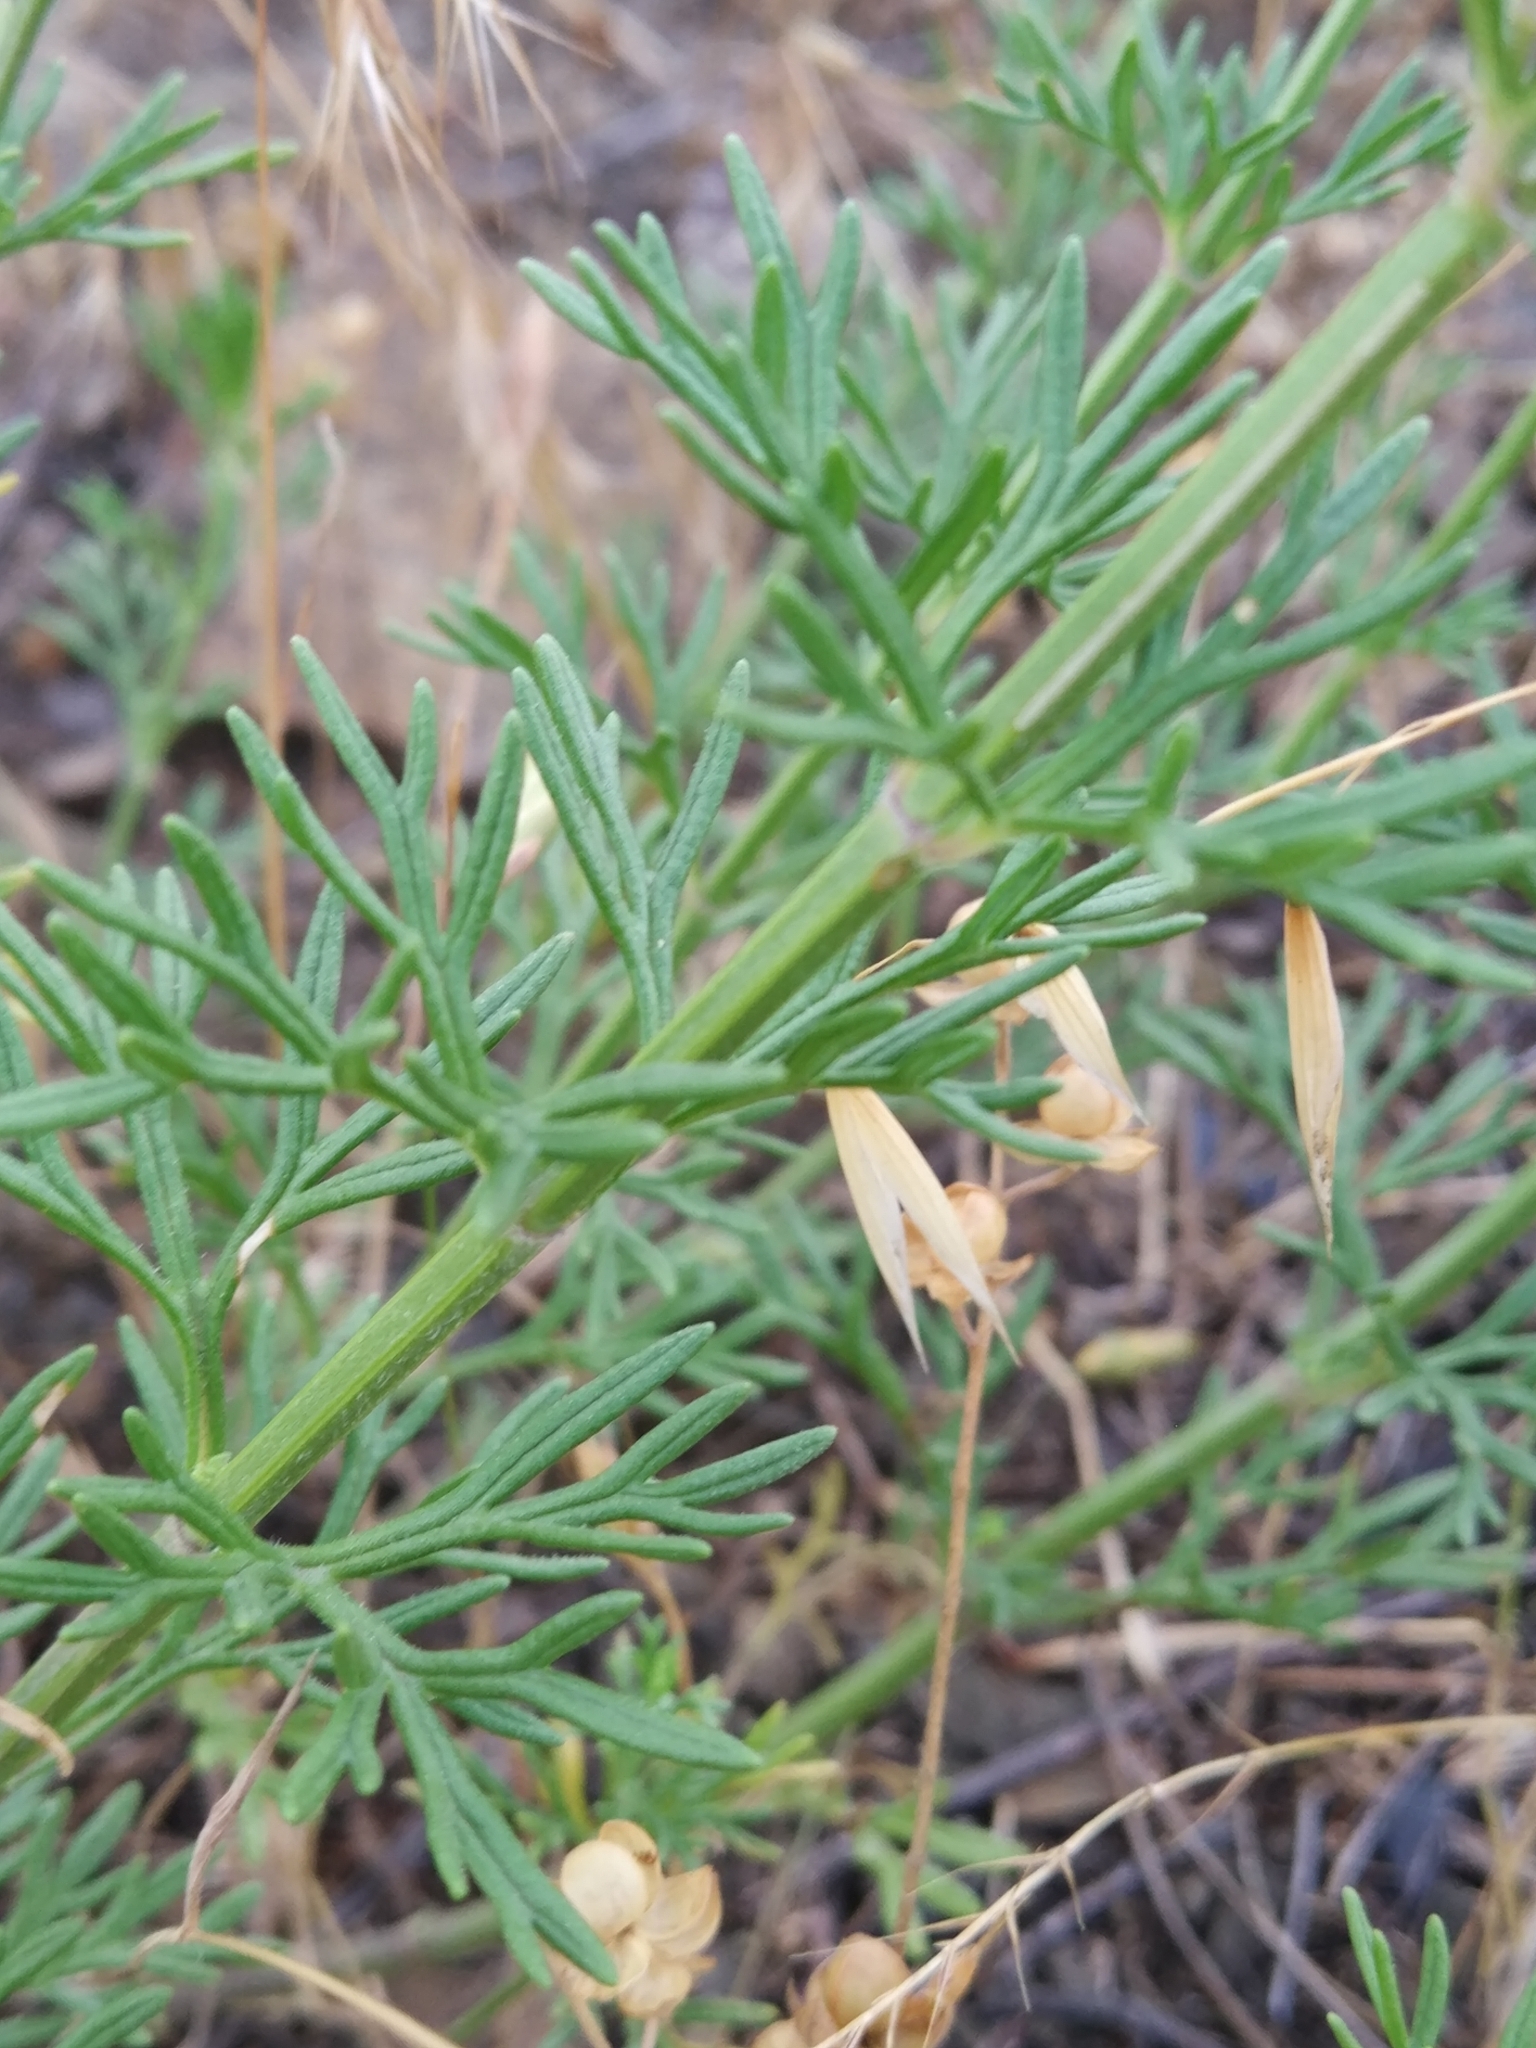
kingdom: Plantae
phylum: Tracheophyta
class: Magnoliopsida
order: Lamiales
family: Lamiaceae
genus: Teucrium
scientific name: Teucrium orientale
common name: Oriental germander
